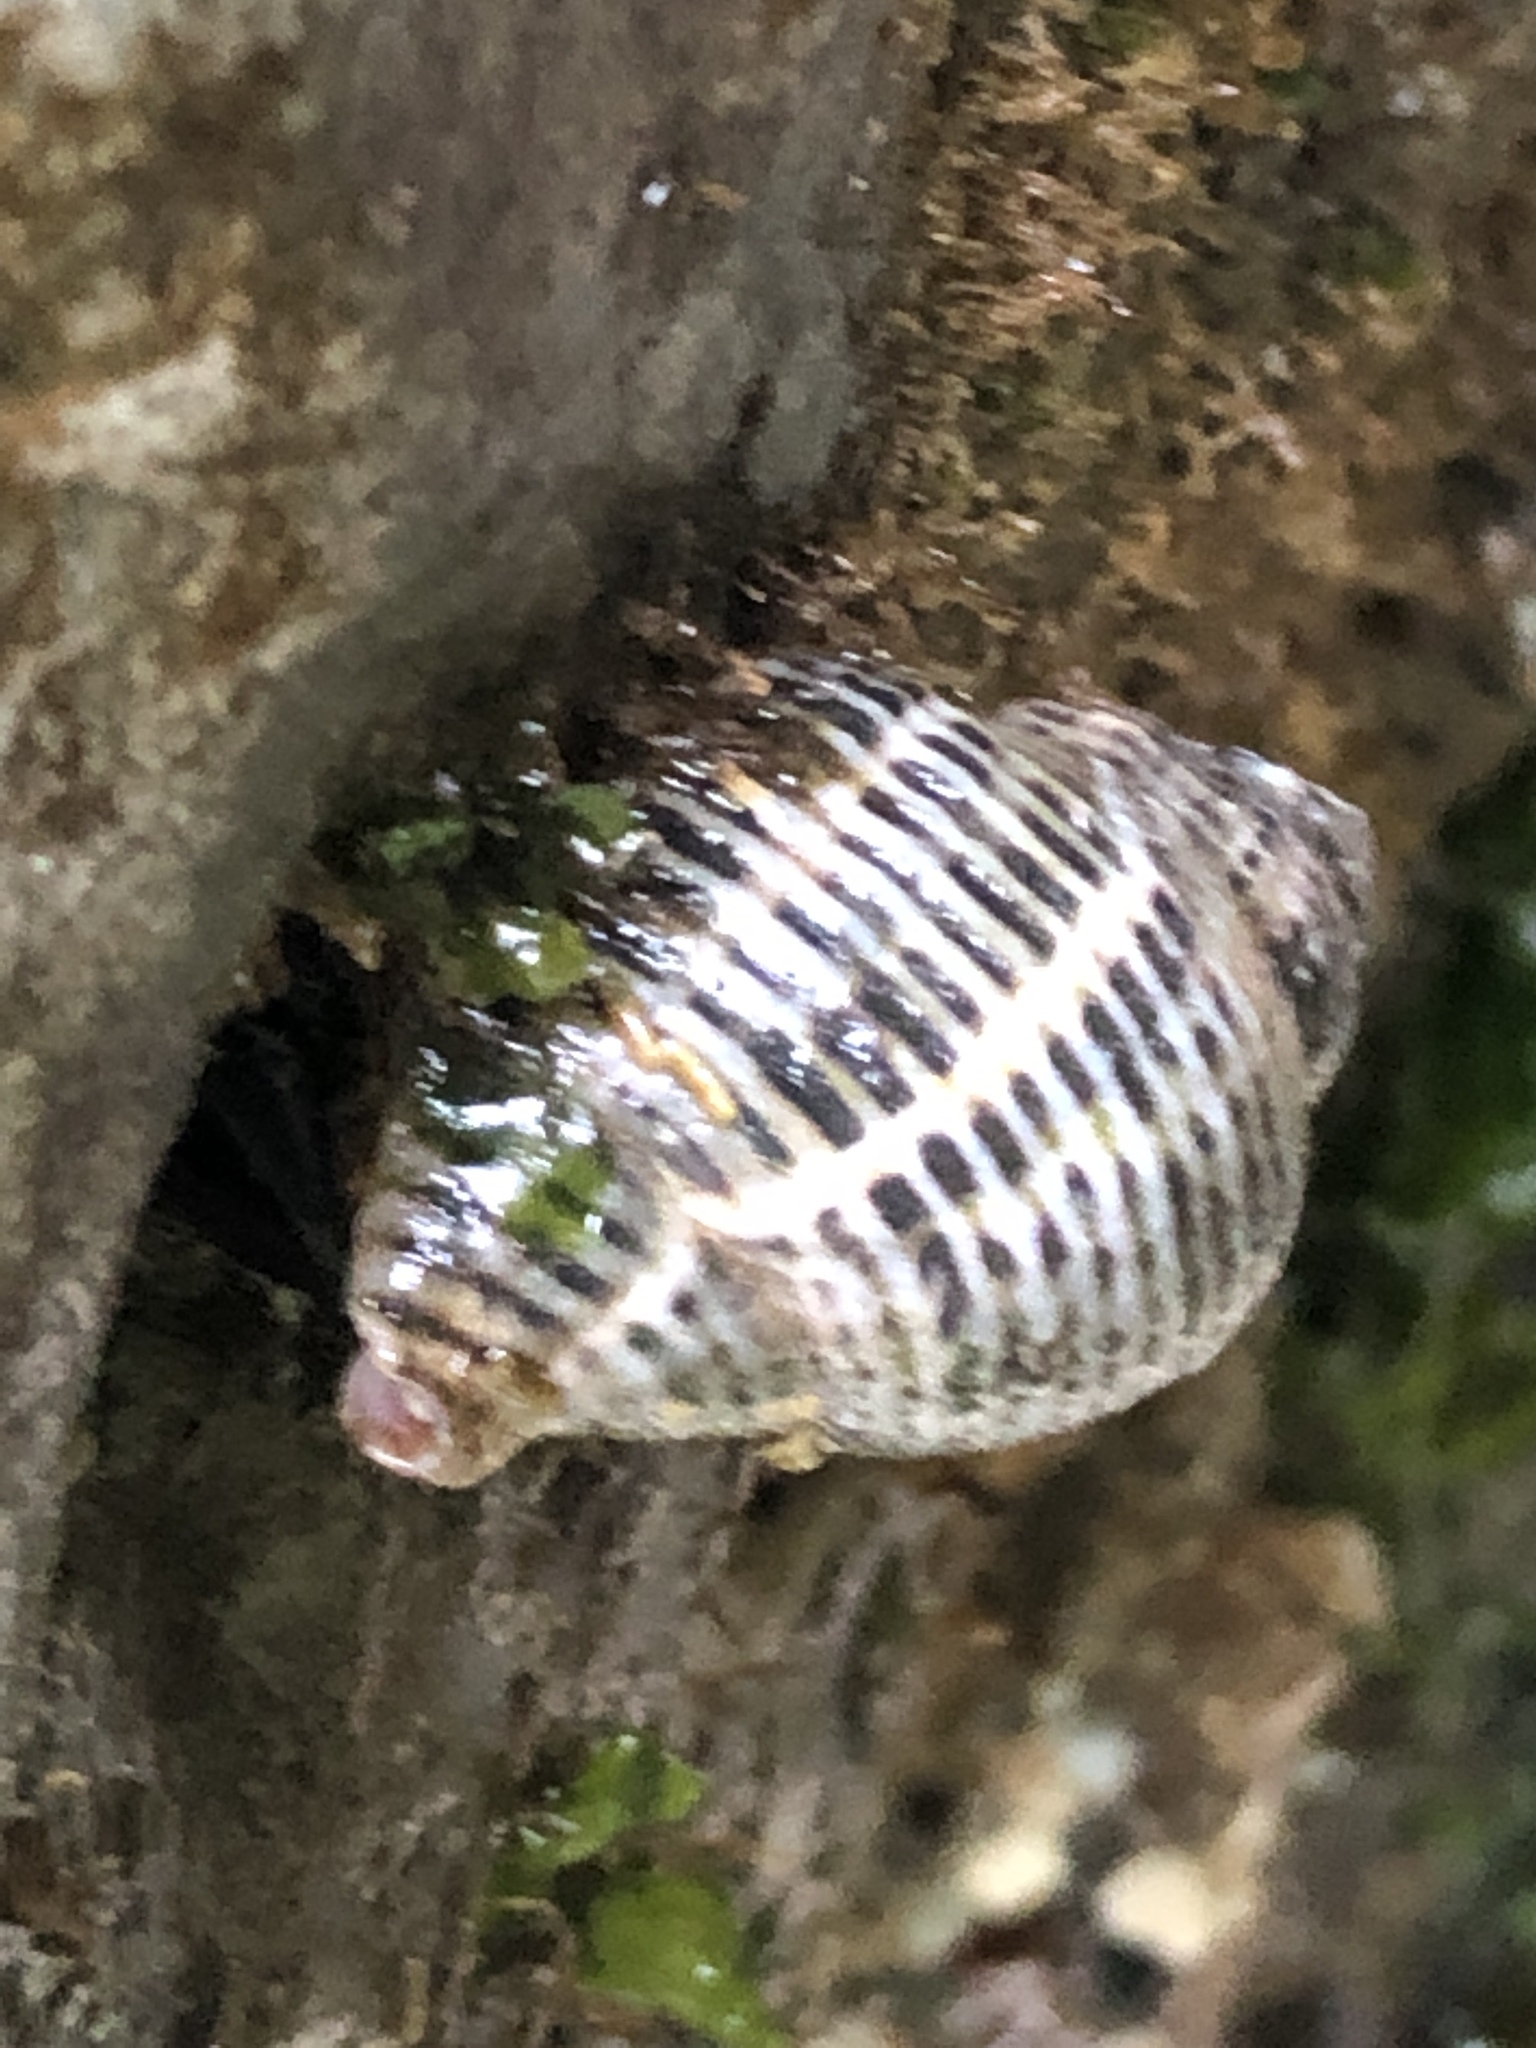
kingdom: Animalia
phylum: Mollusca
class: Gastropoda
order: Neogastropoda
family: Muricidae
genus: Acanthinucella
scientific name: Acanthinucella punctulata
